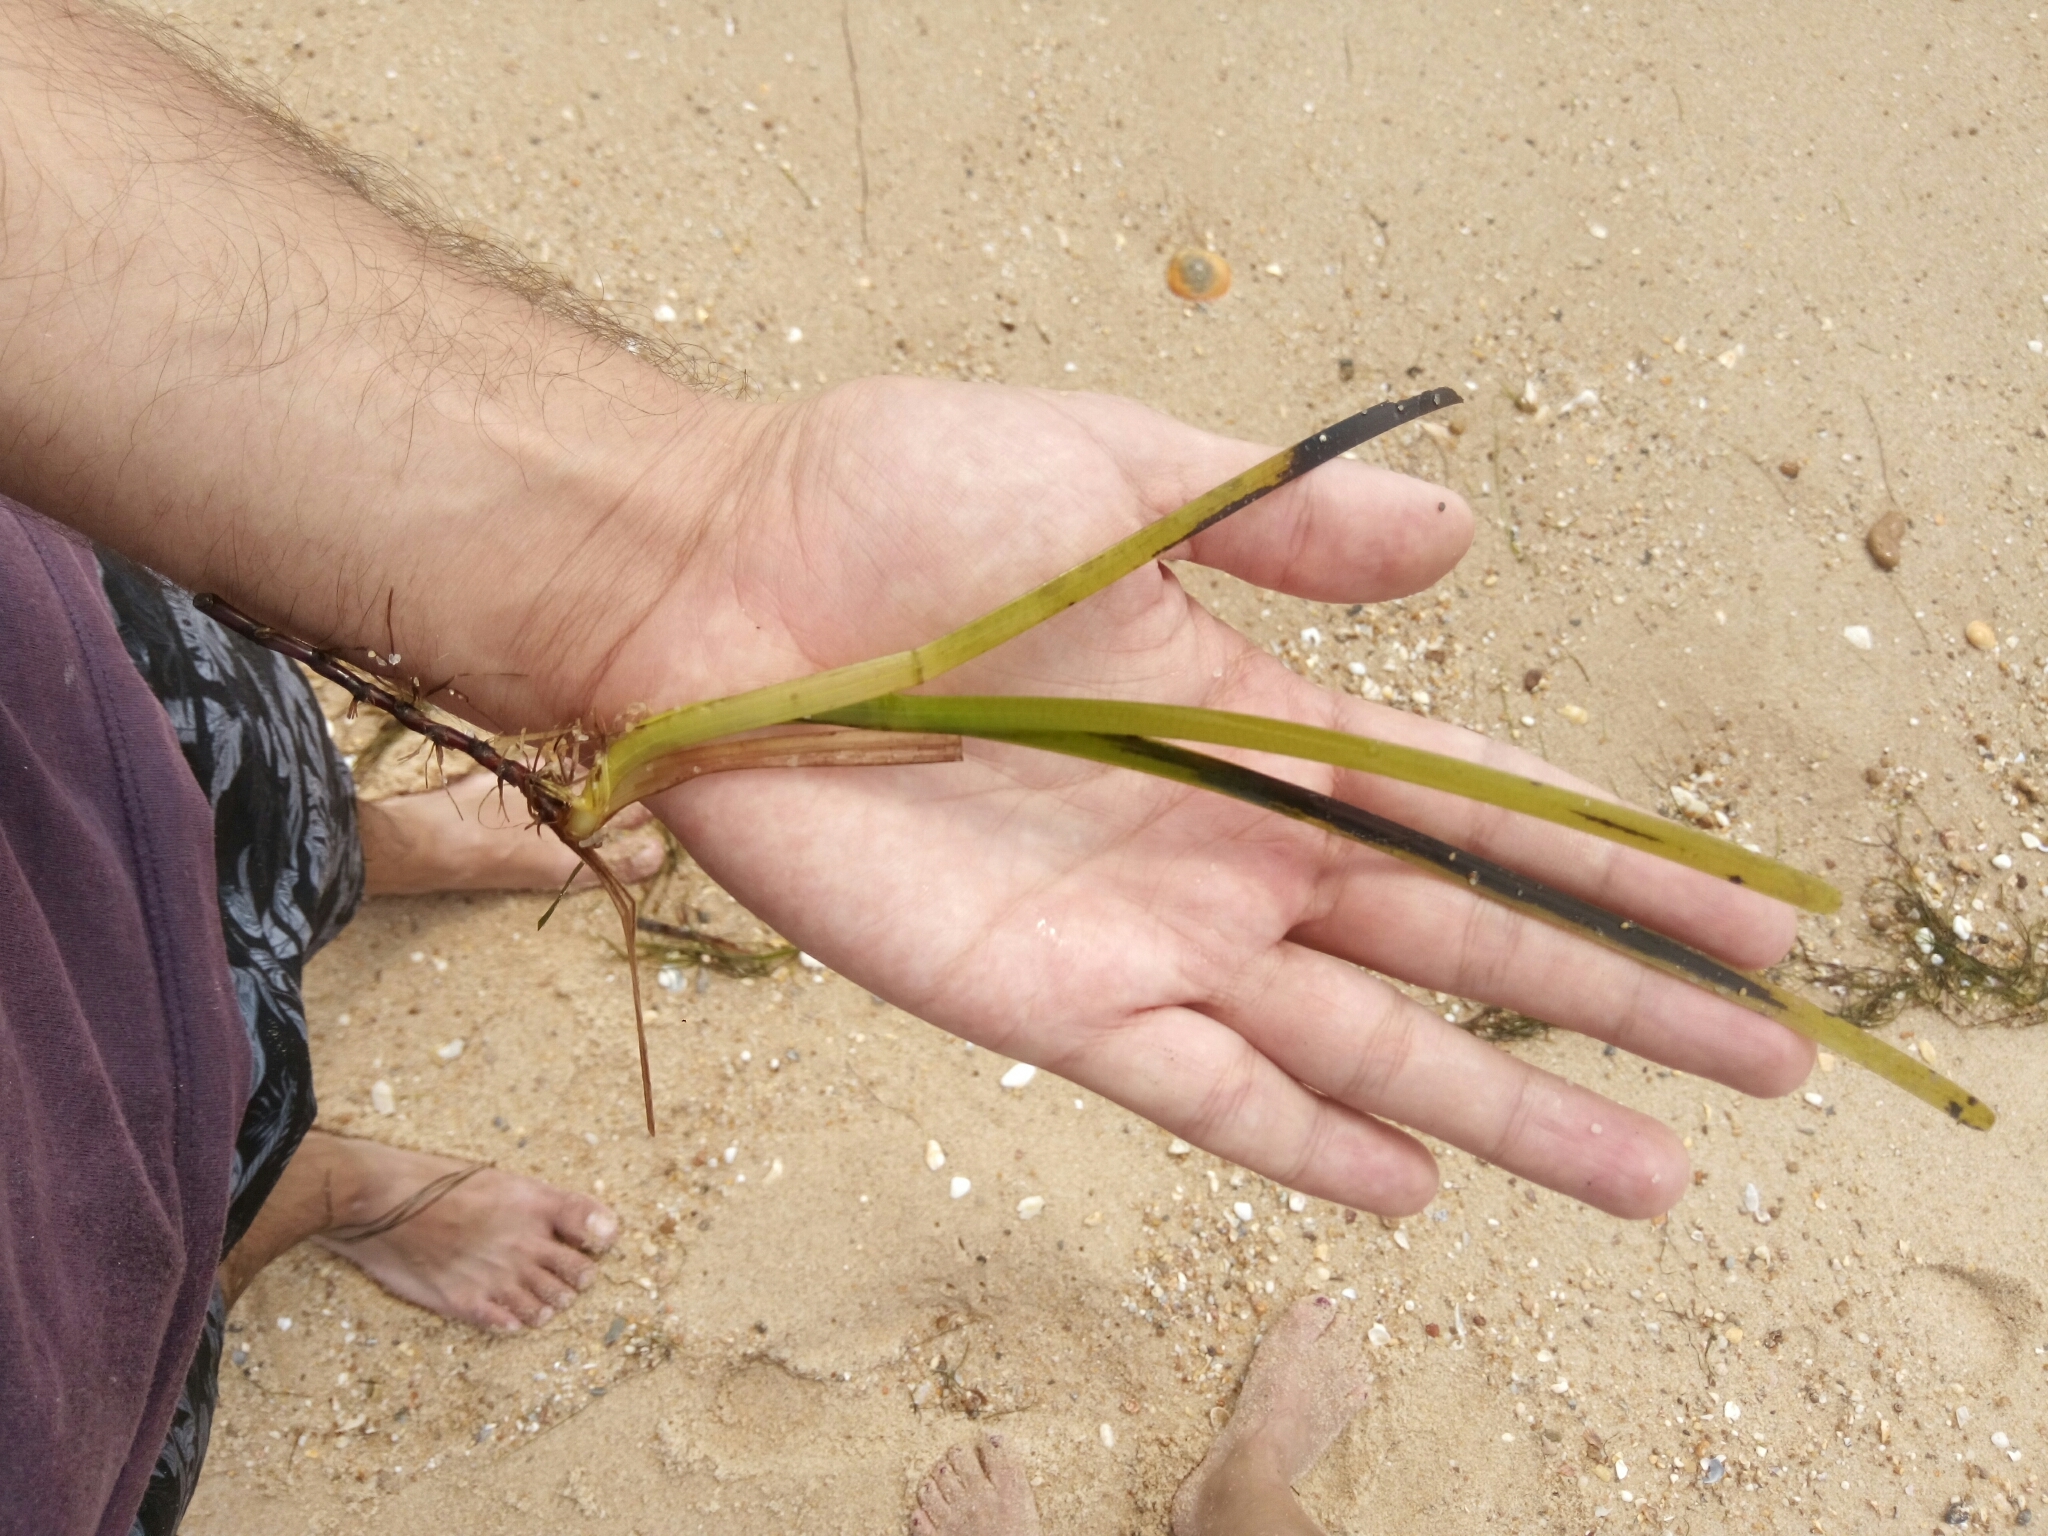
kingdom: Plantae
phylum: Tracheophyta
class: Liliopsida
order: Alismatales
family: Zosteraceae
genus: Zostera
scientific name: Zostera marina
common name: Eelgrass
